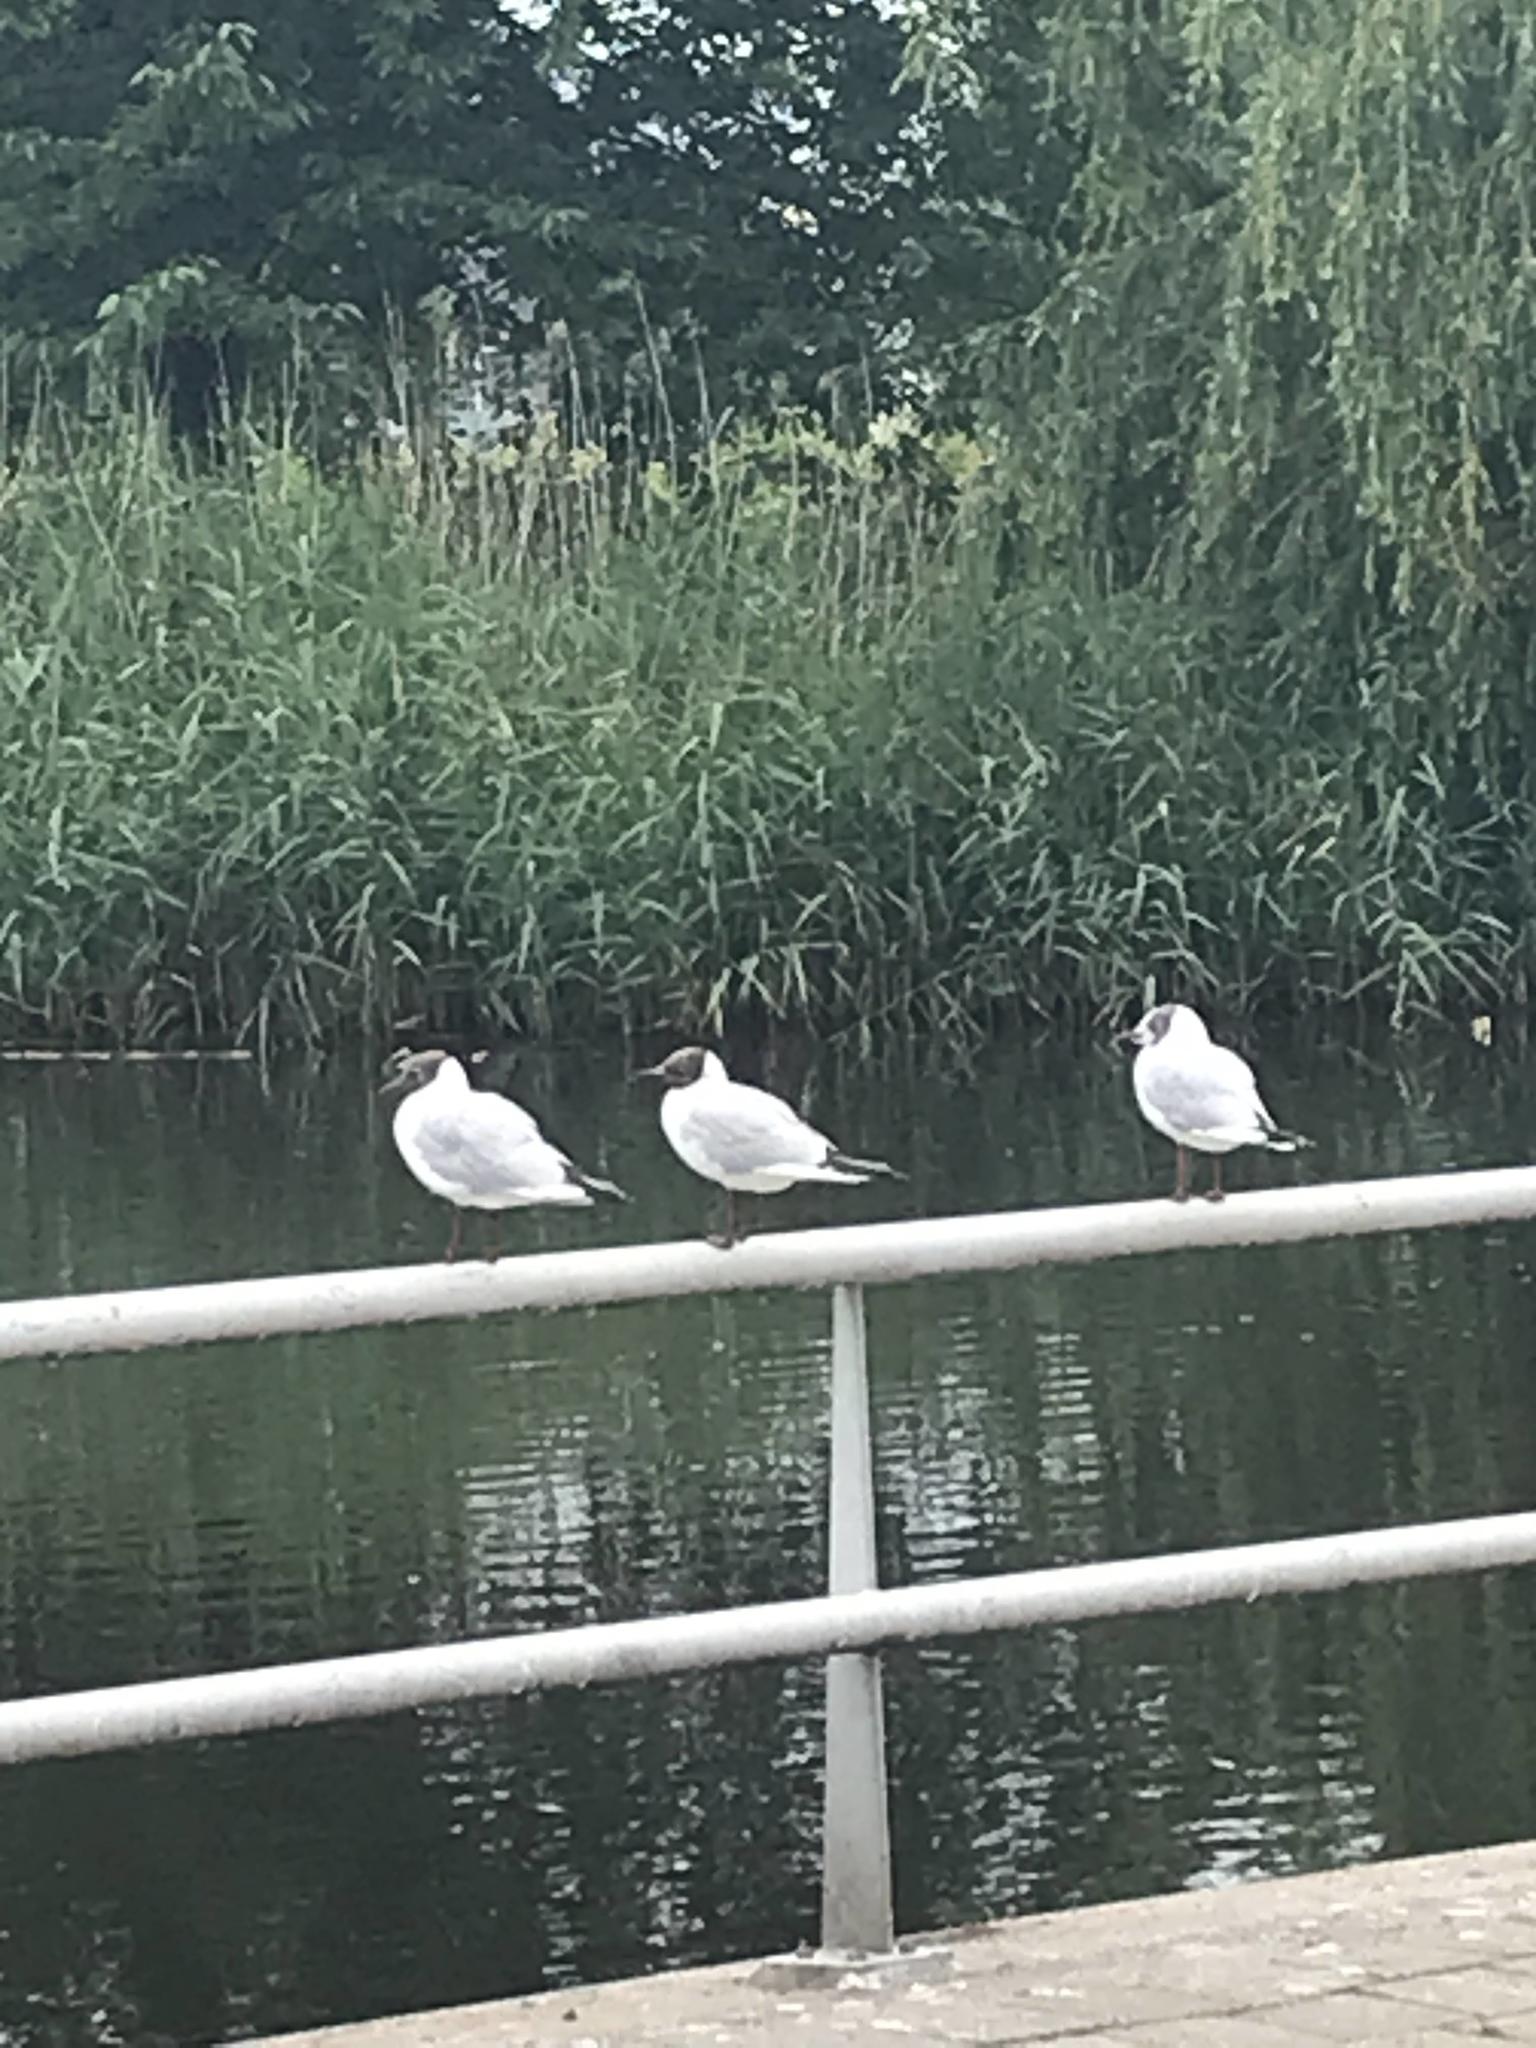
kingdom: Animalia
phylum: Chordata
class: Aves
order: Charadriiformes
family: Laridae
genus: Chroicocephalus
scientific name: Chroicocephalus ridibundus
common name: Black-headed gull
